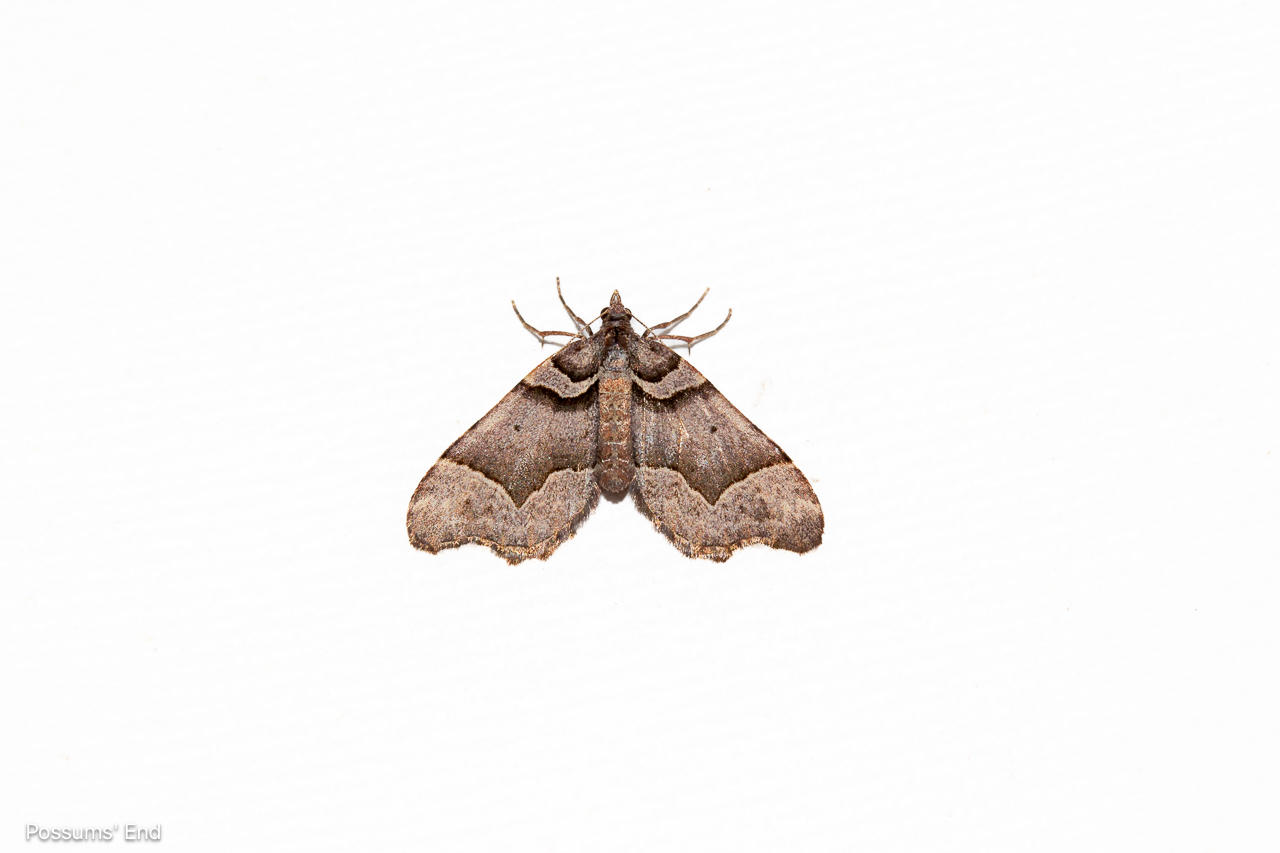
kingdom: Animalia
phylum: Arthropoda
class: Insecta
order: Lepidoptera
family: Geometridae
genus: Helastia
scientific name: Helastia triphragma
